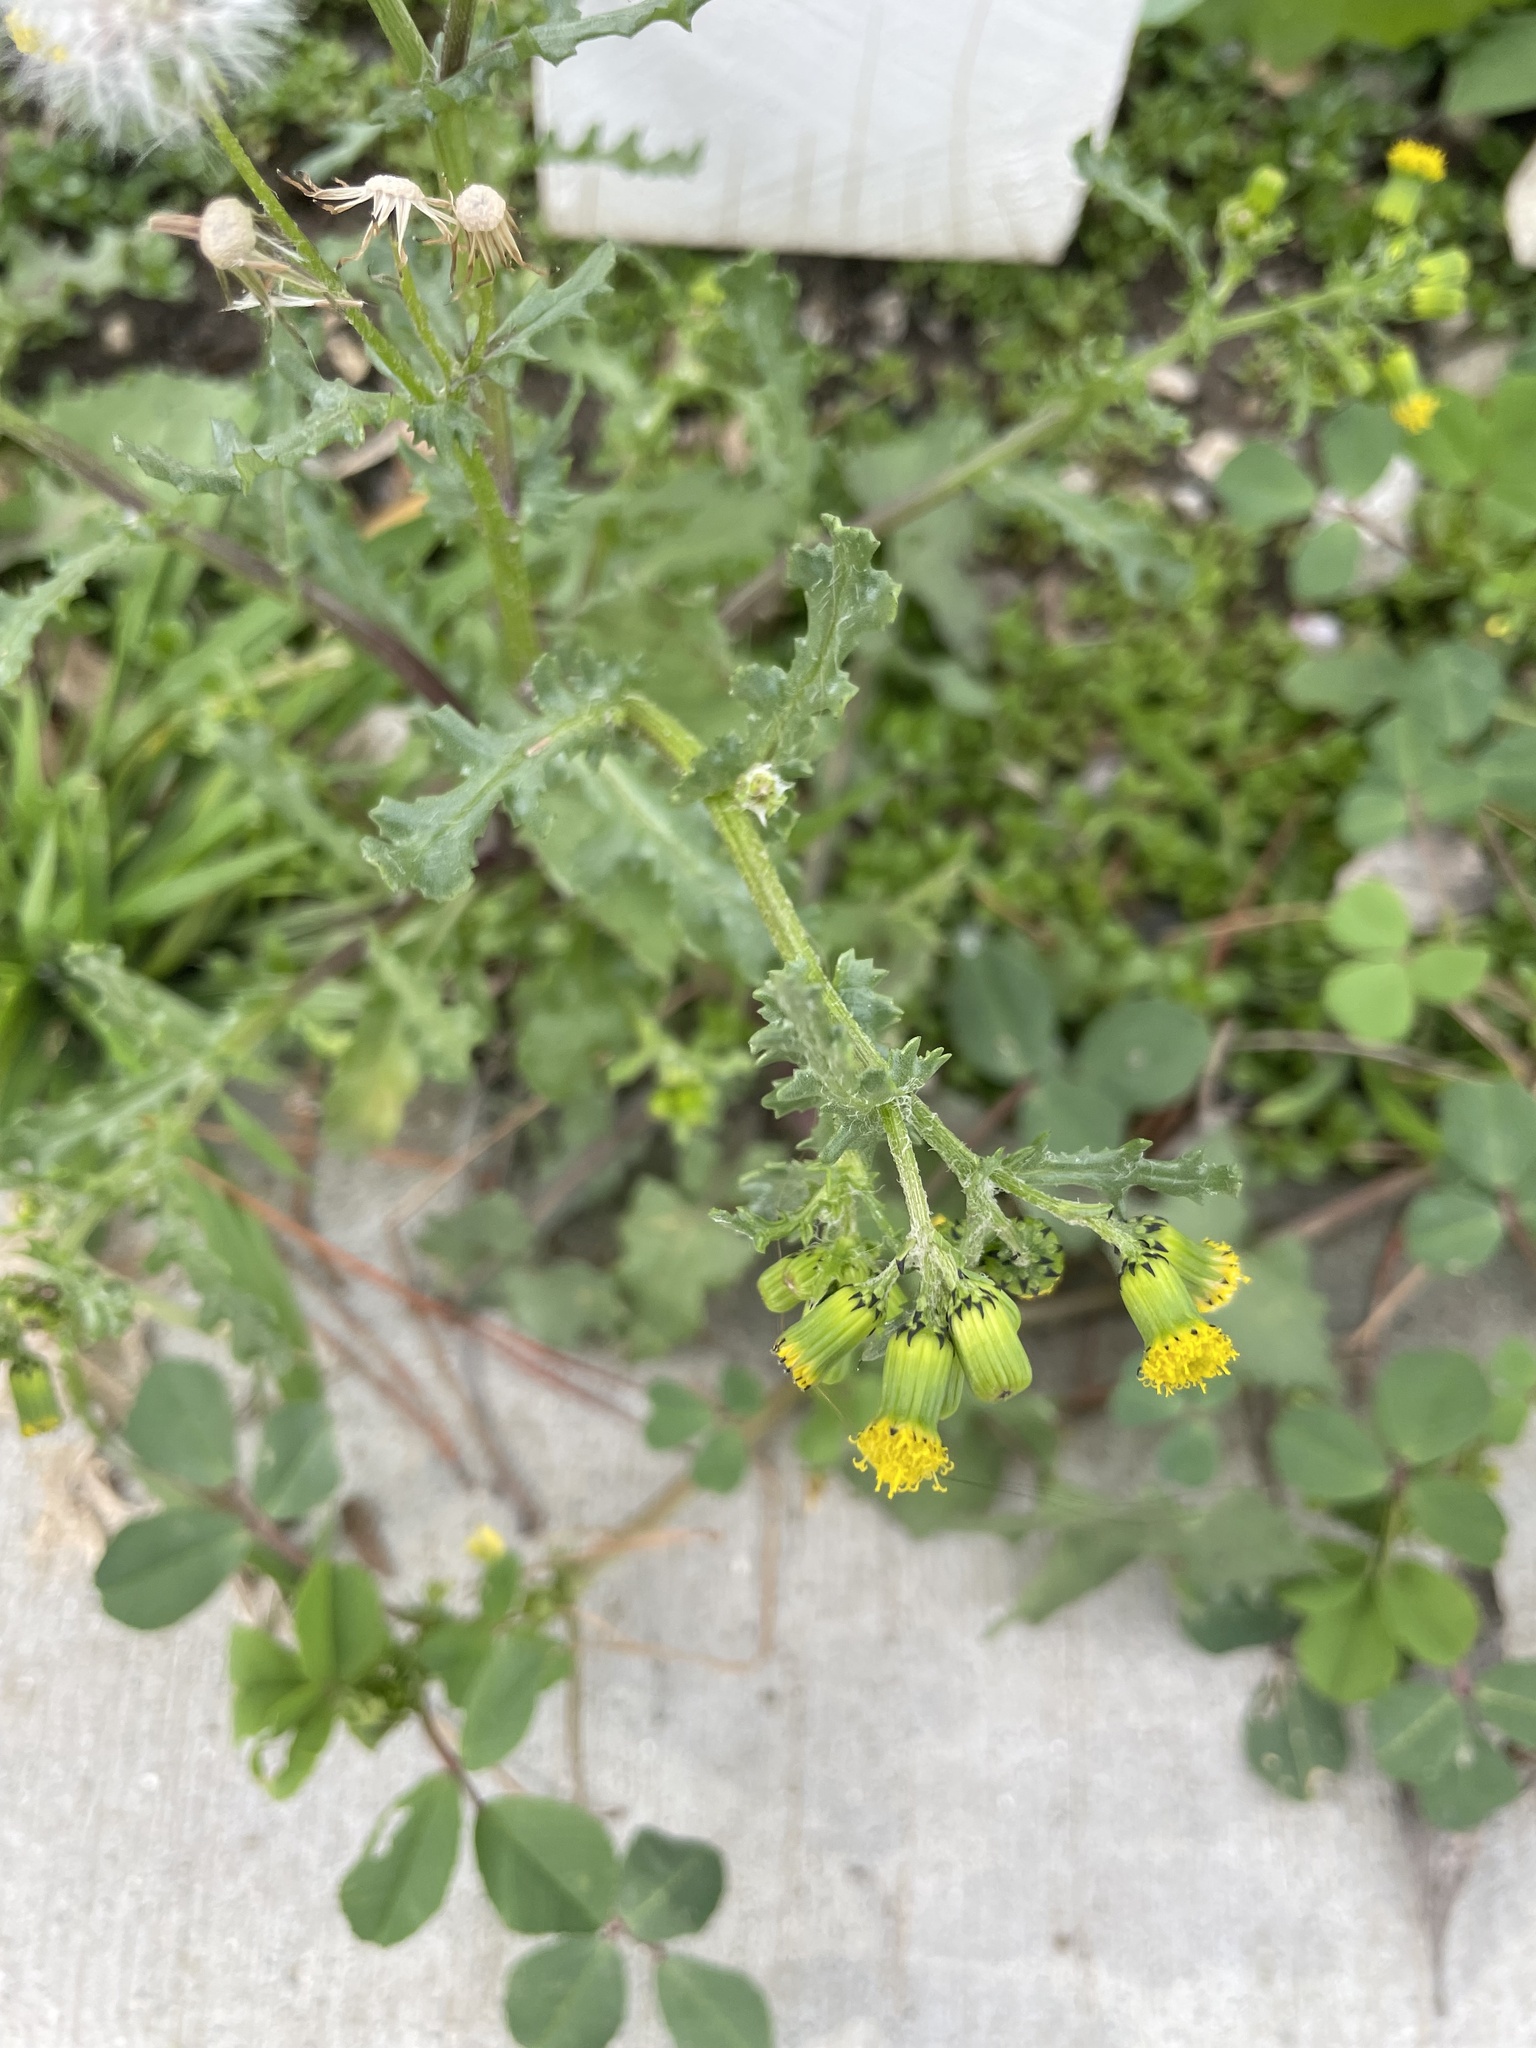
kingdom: Plantae
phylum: Tracheophyta
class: Magnoliopsida
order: Asterales
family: Asteraceae
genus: Senecio
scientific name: Senecio vulgaris
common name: Old-man-in-the-spring
